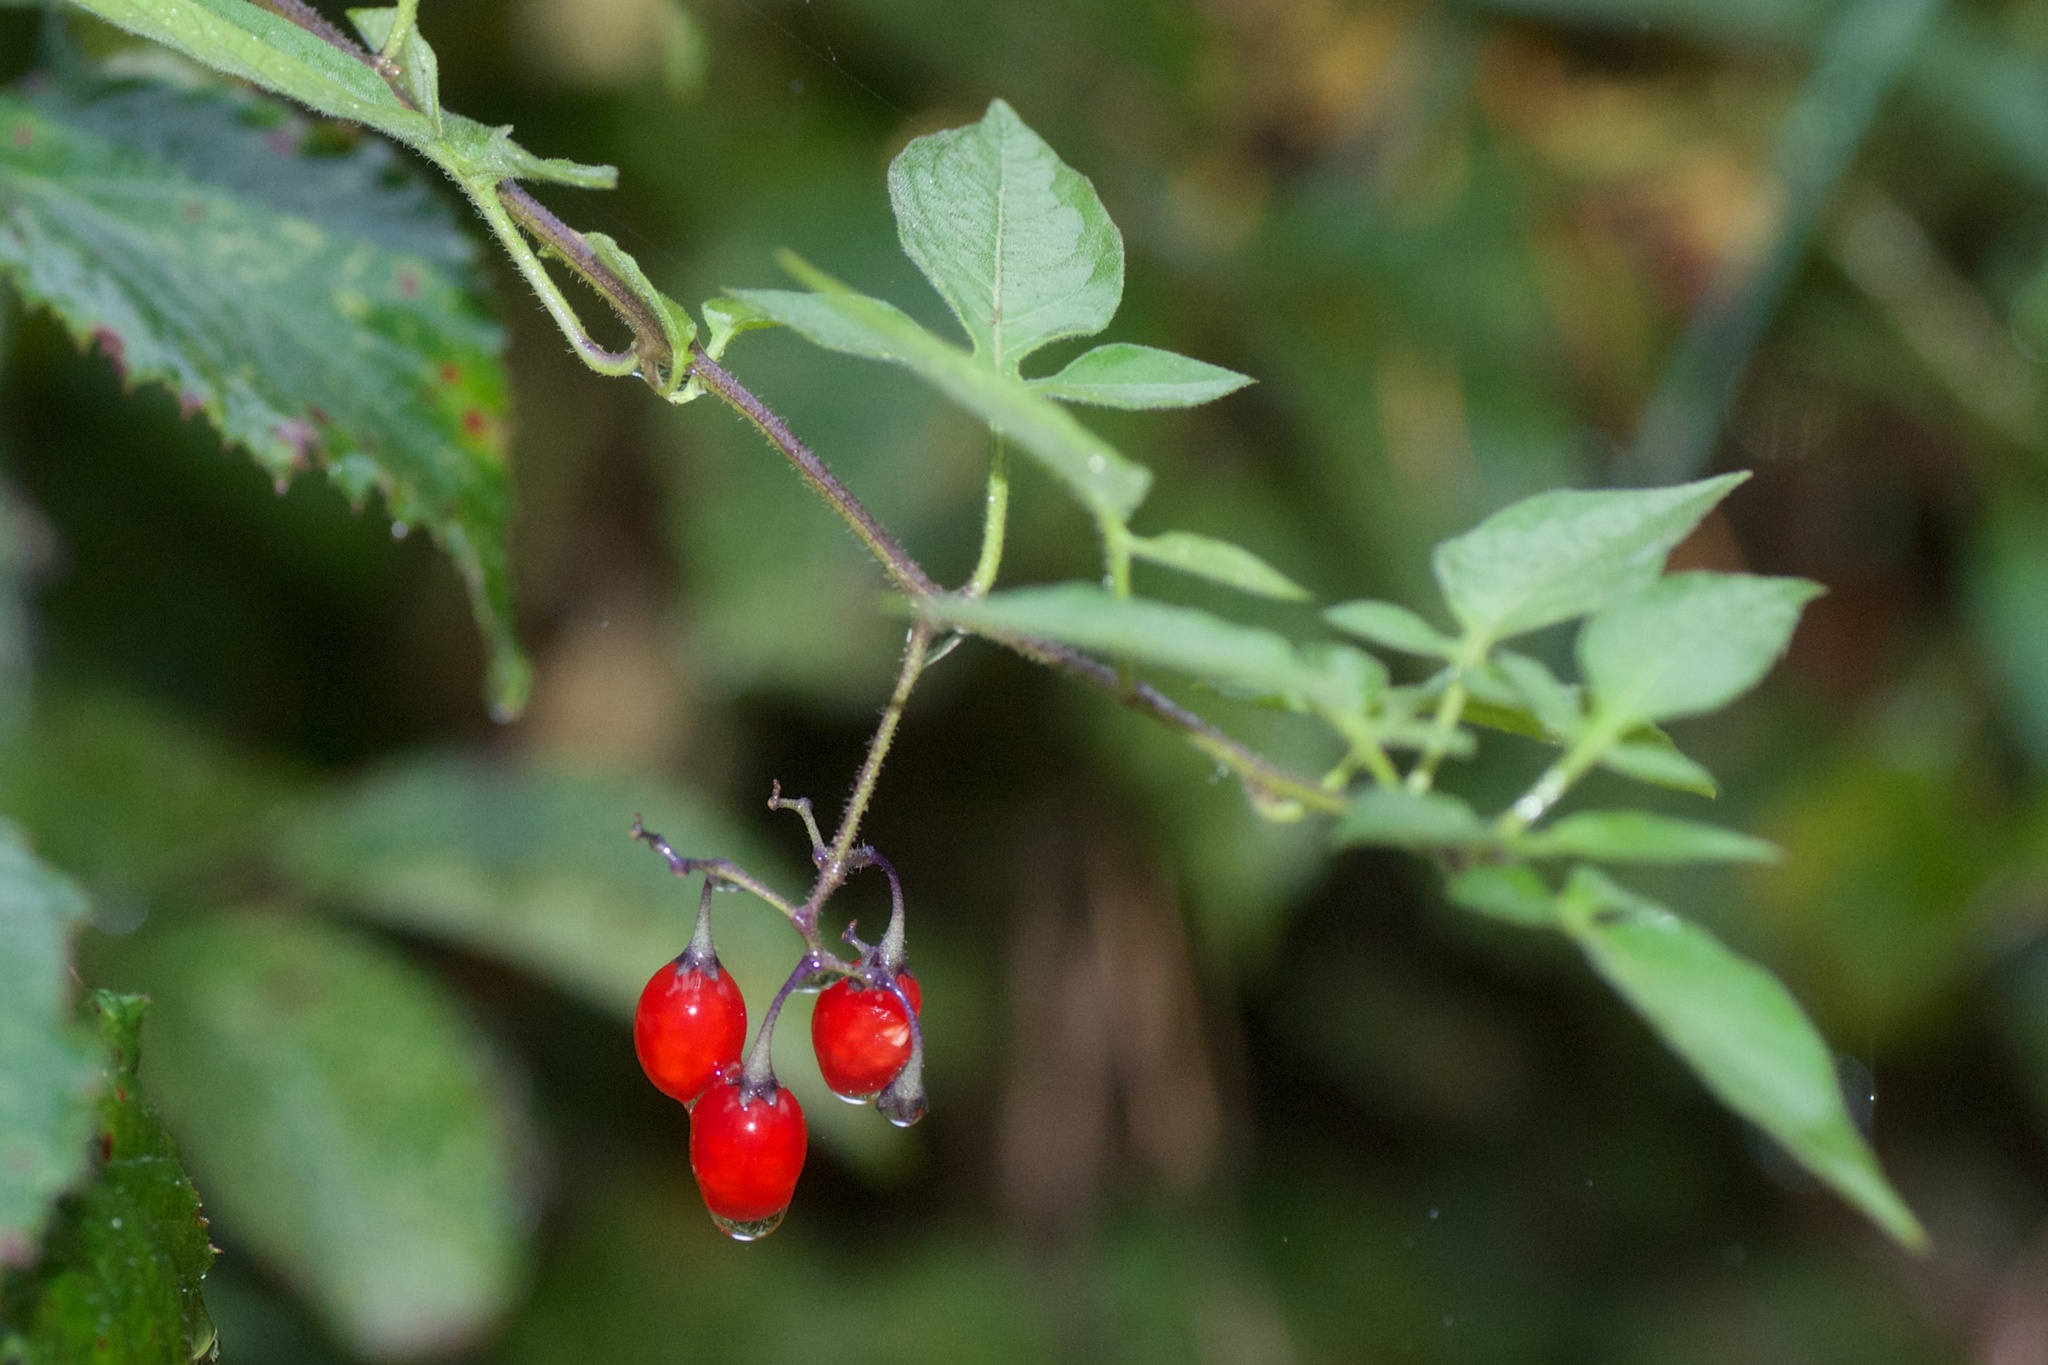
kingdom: Plantae
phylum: Tracheophyta
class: Magnoliopsida
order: Solanales
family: Solanaceae
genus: Solanum
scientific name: Solanum dulcamara
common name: Climbing nightshade
